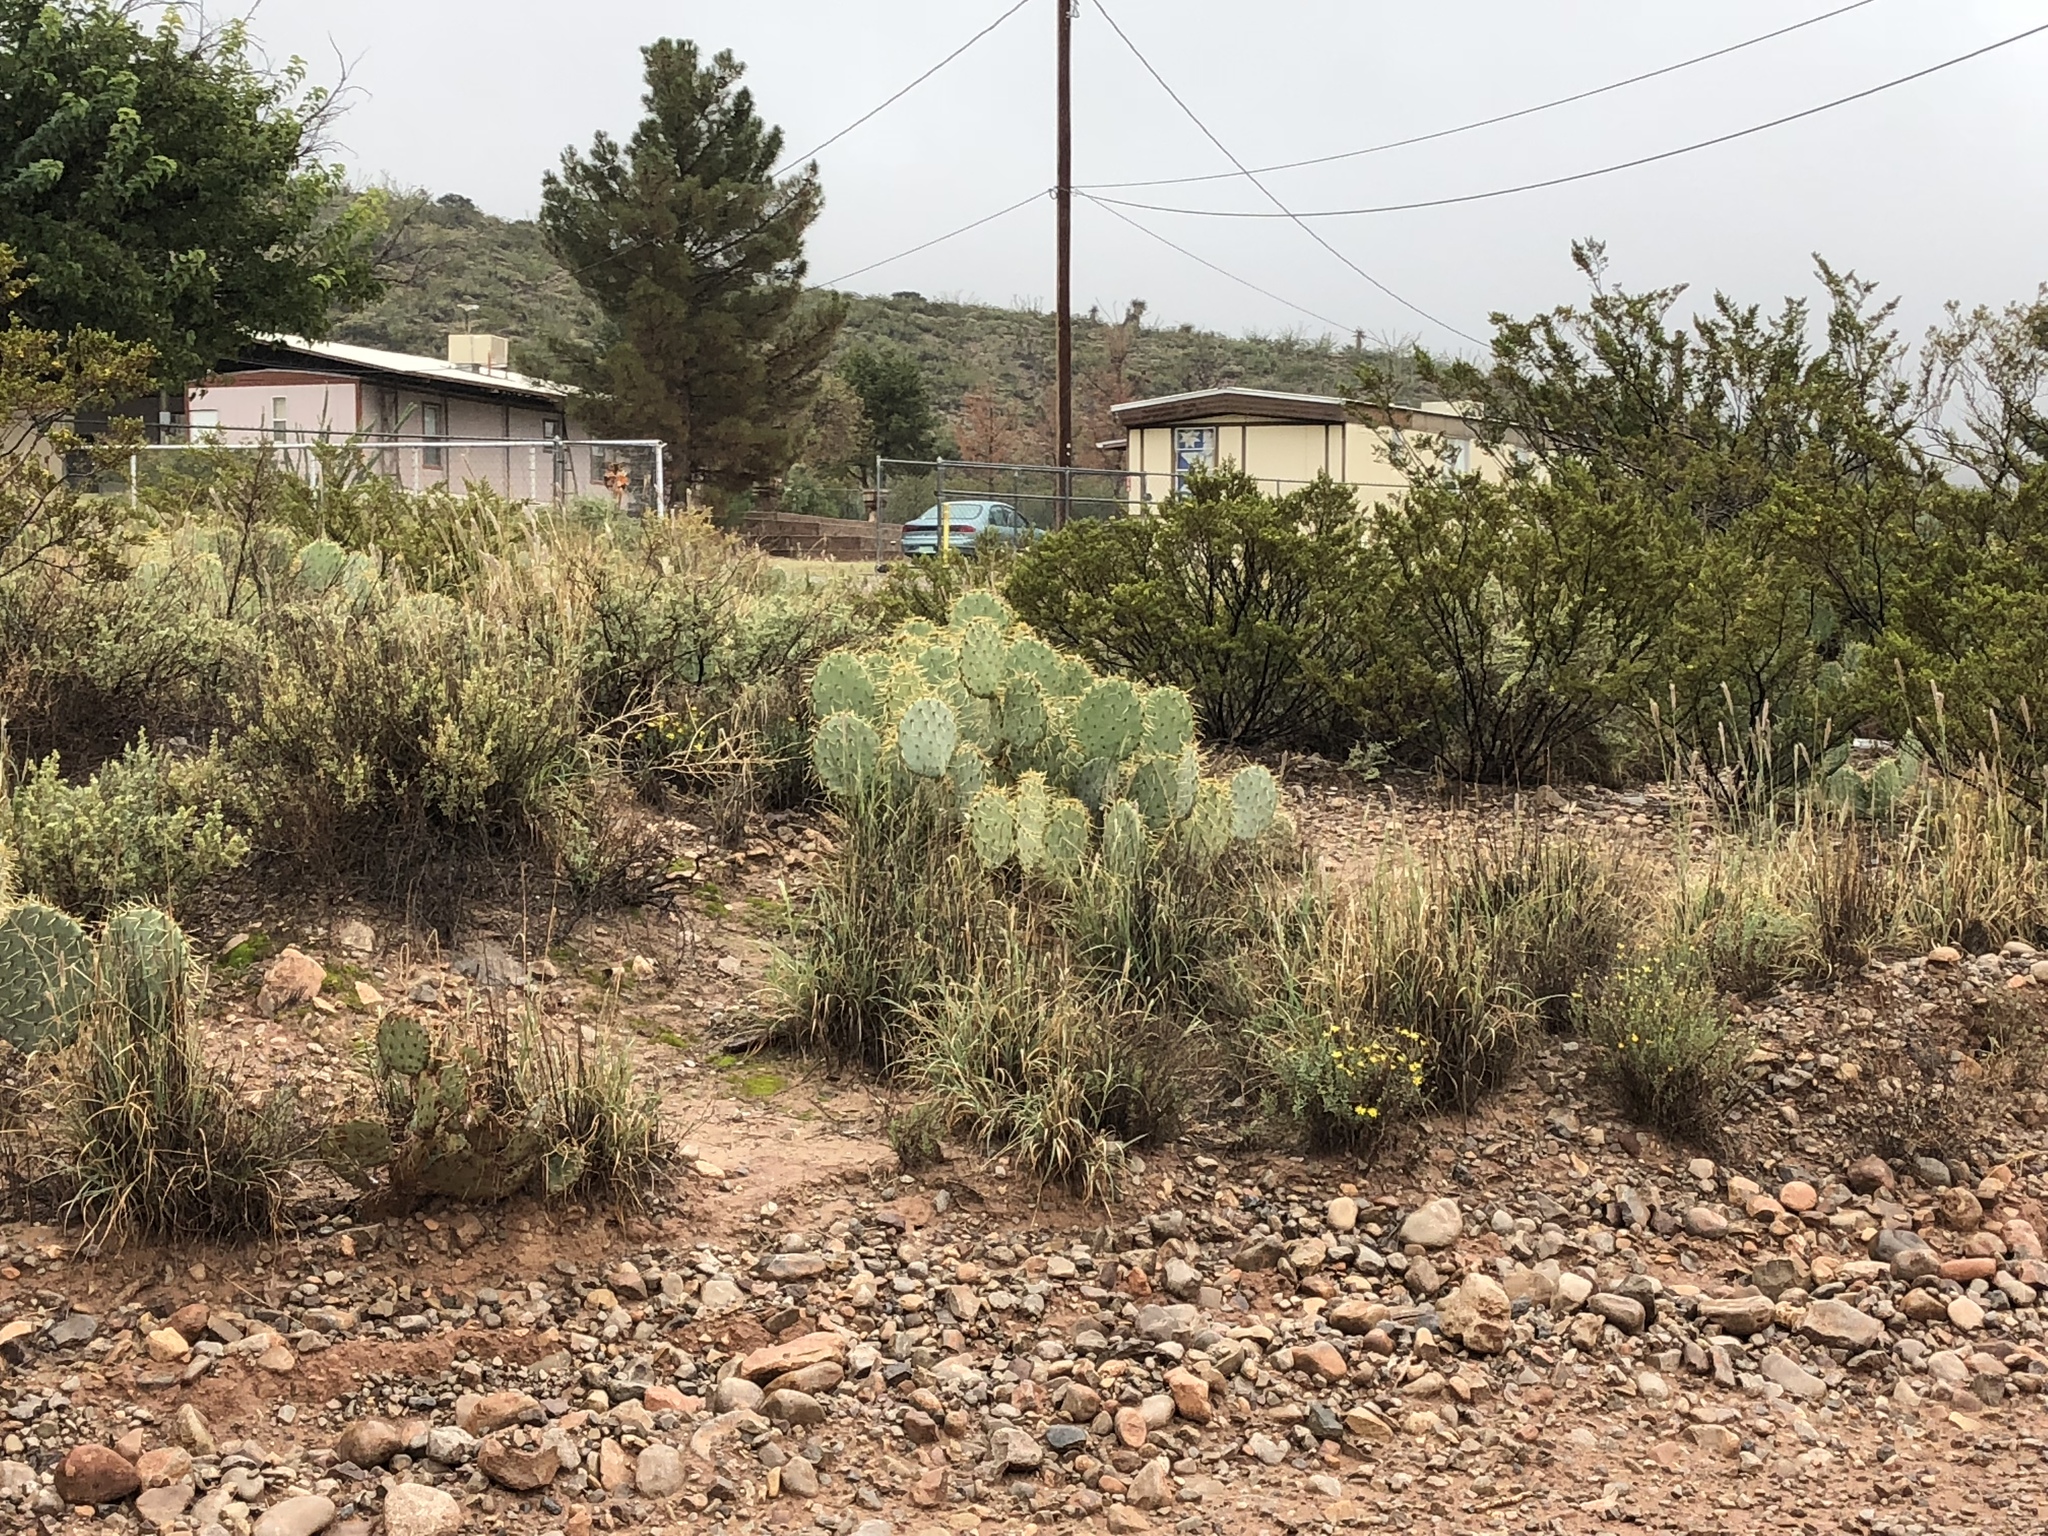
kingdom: Plantae
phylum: Tracheophyta
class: Magnoliopsida
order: Caryophyllales
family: Cactaceae
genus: Opuntia
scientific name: Opuntia phaeacantha
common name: New mexico prickly-pear
